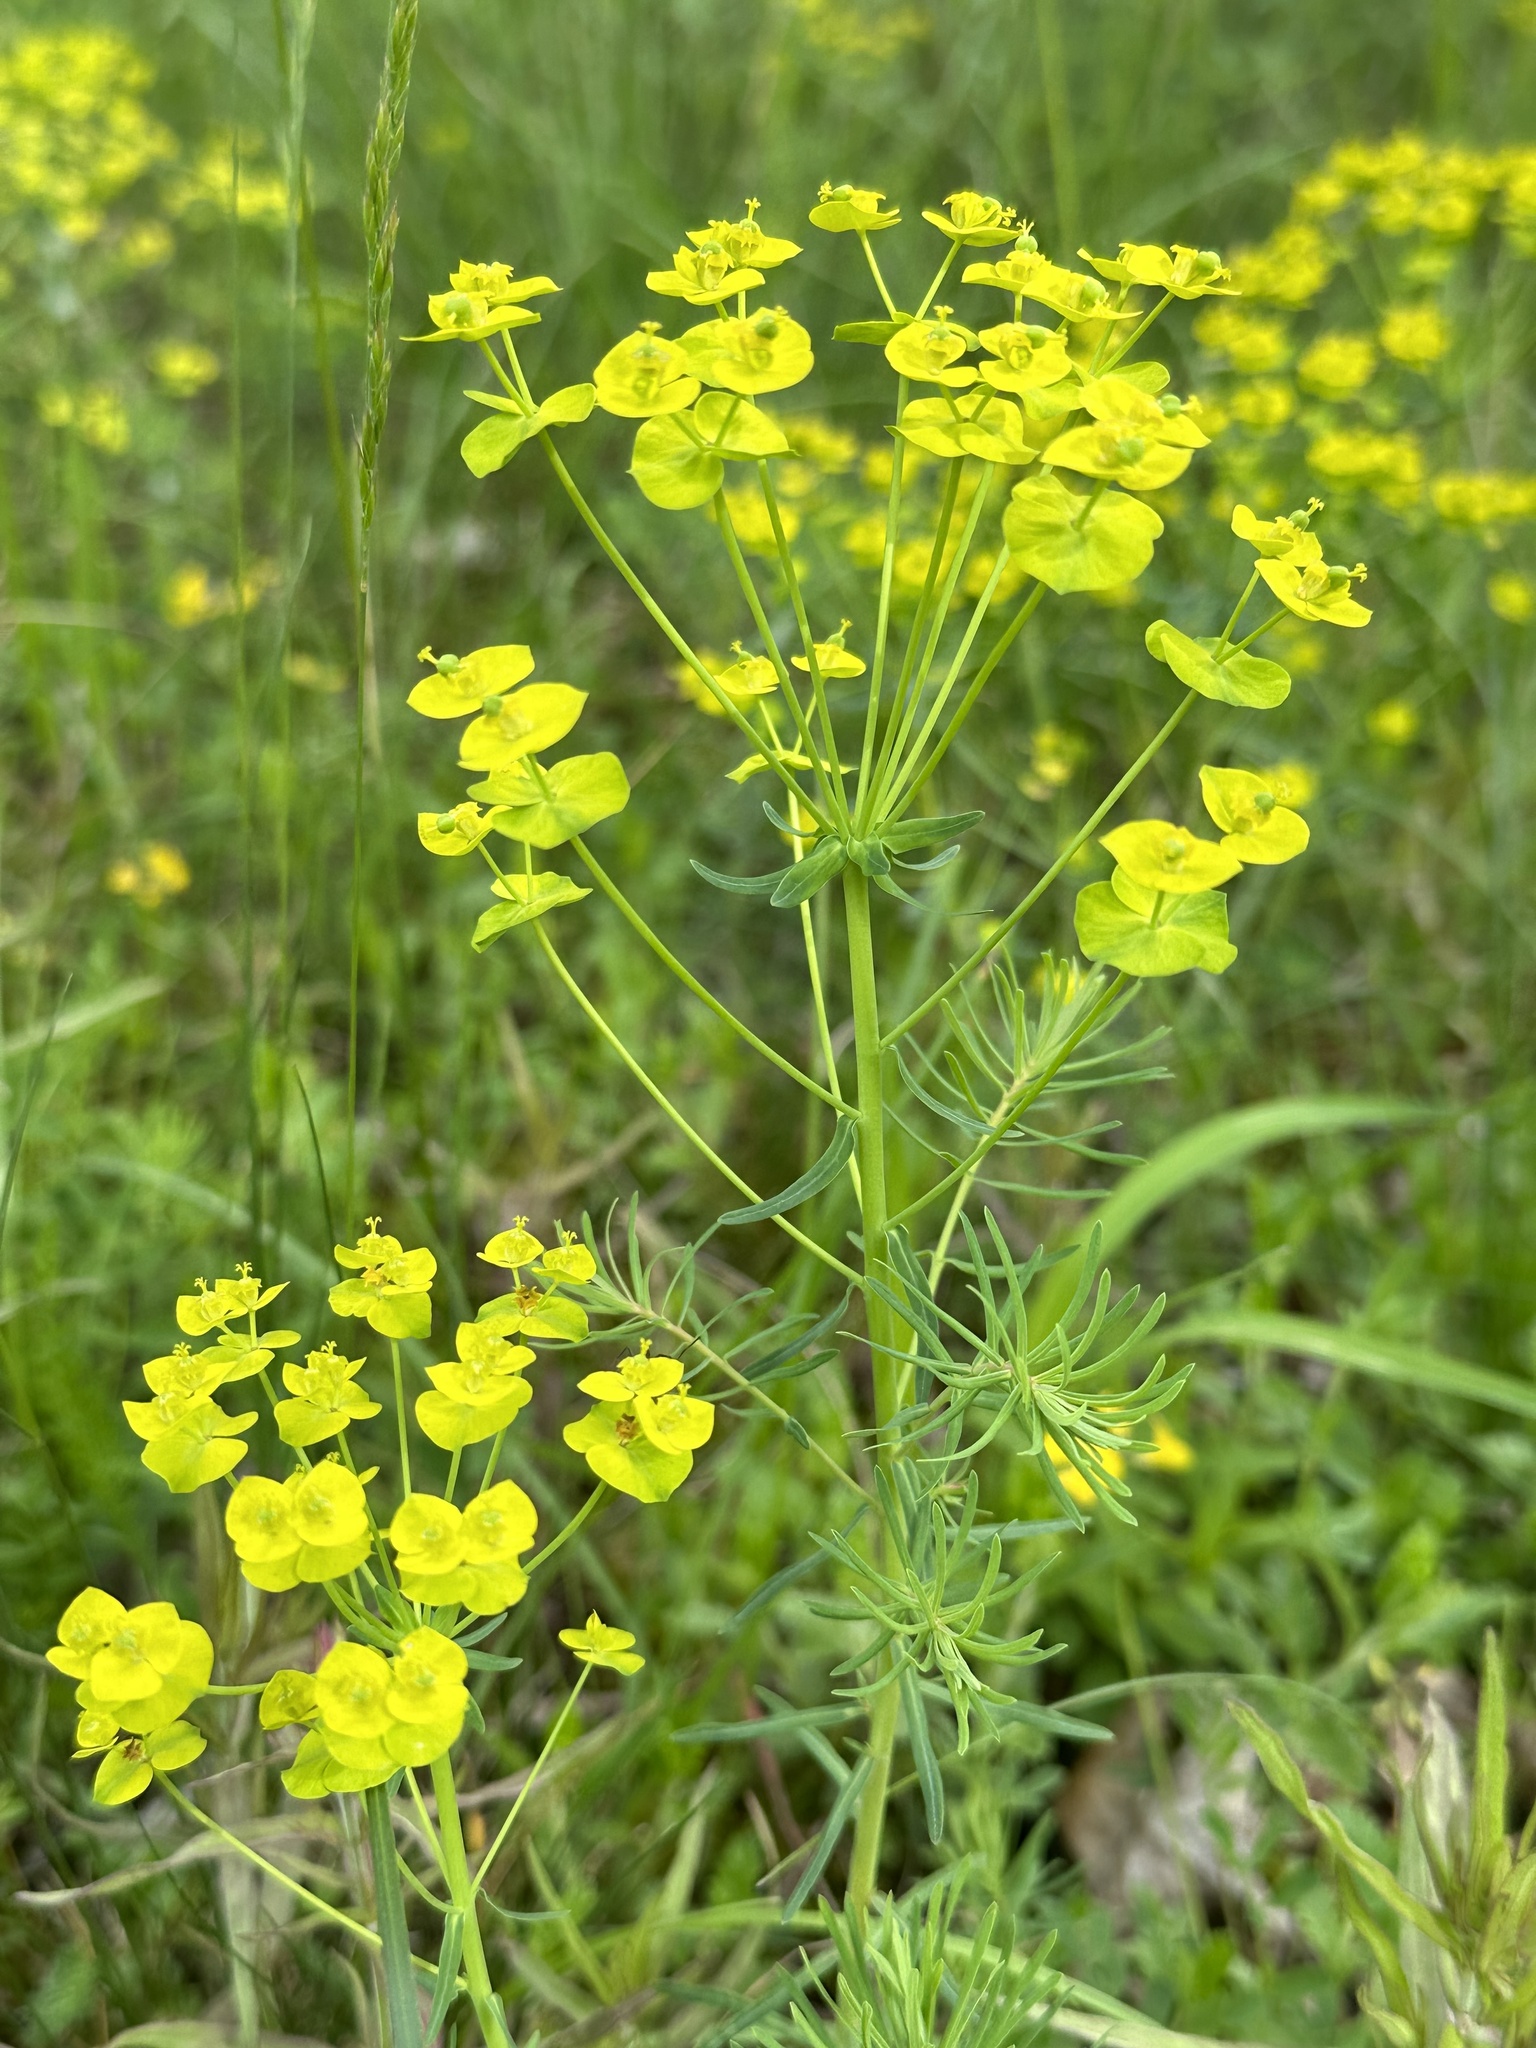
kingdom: Plantae
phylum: Tracheophyta
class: Magnoliopsida
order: Malpighiales
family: Euphorbiaceae
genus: Euphorbia
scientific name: Euphorbia cyparissias
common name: Cypress spurge
